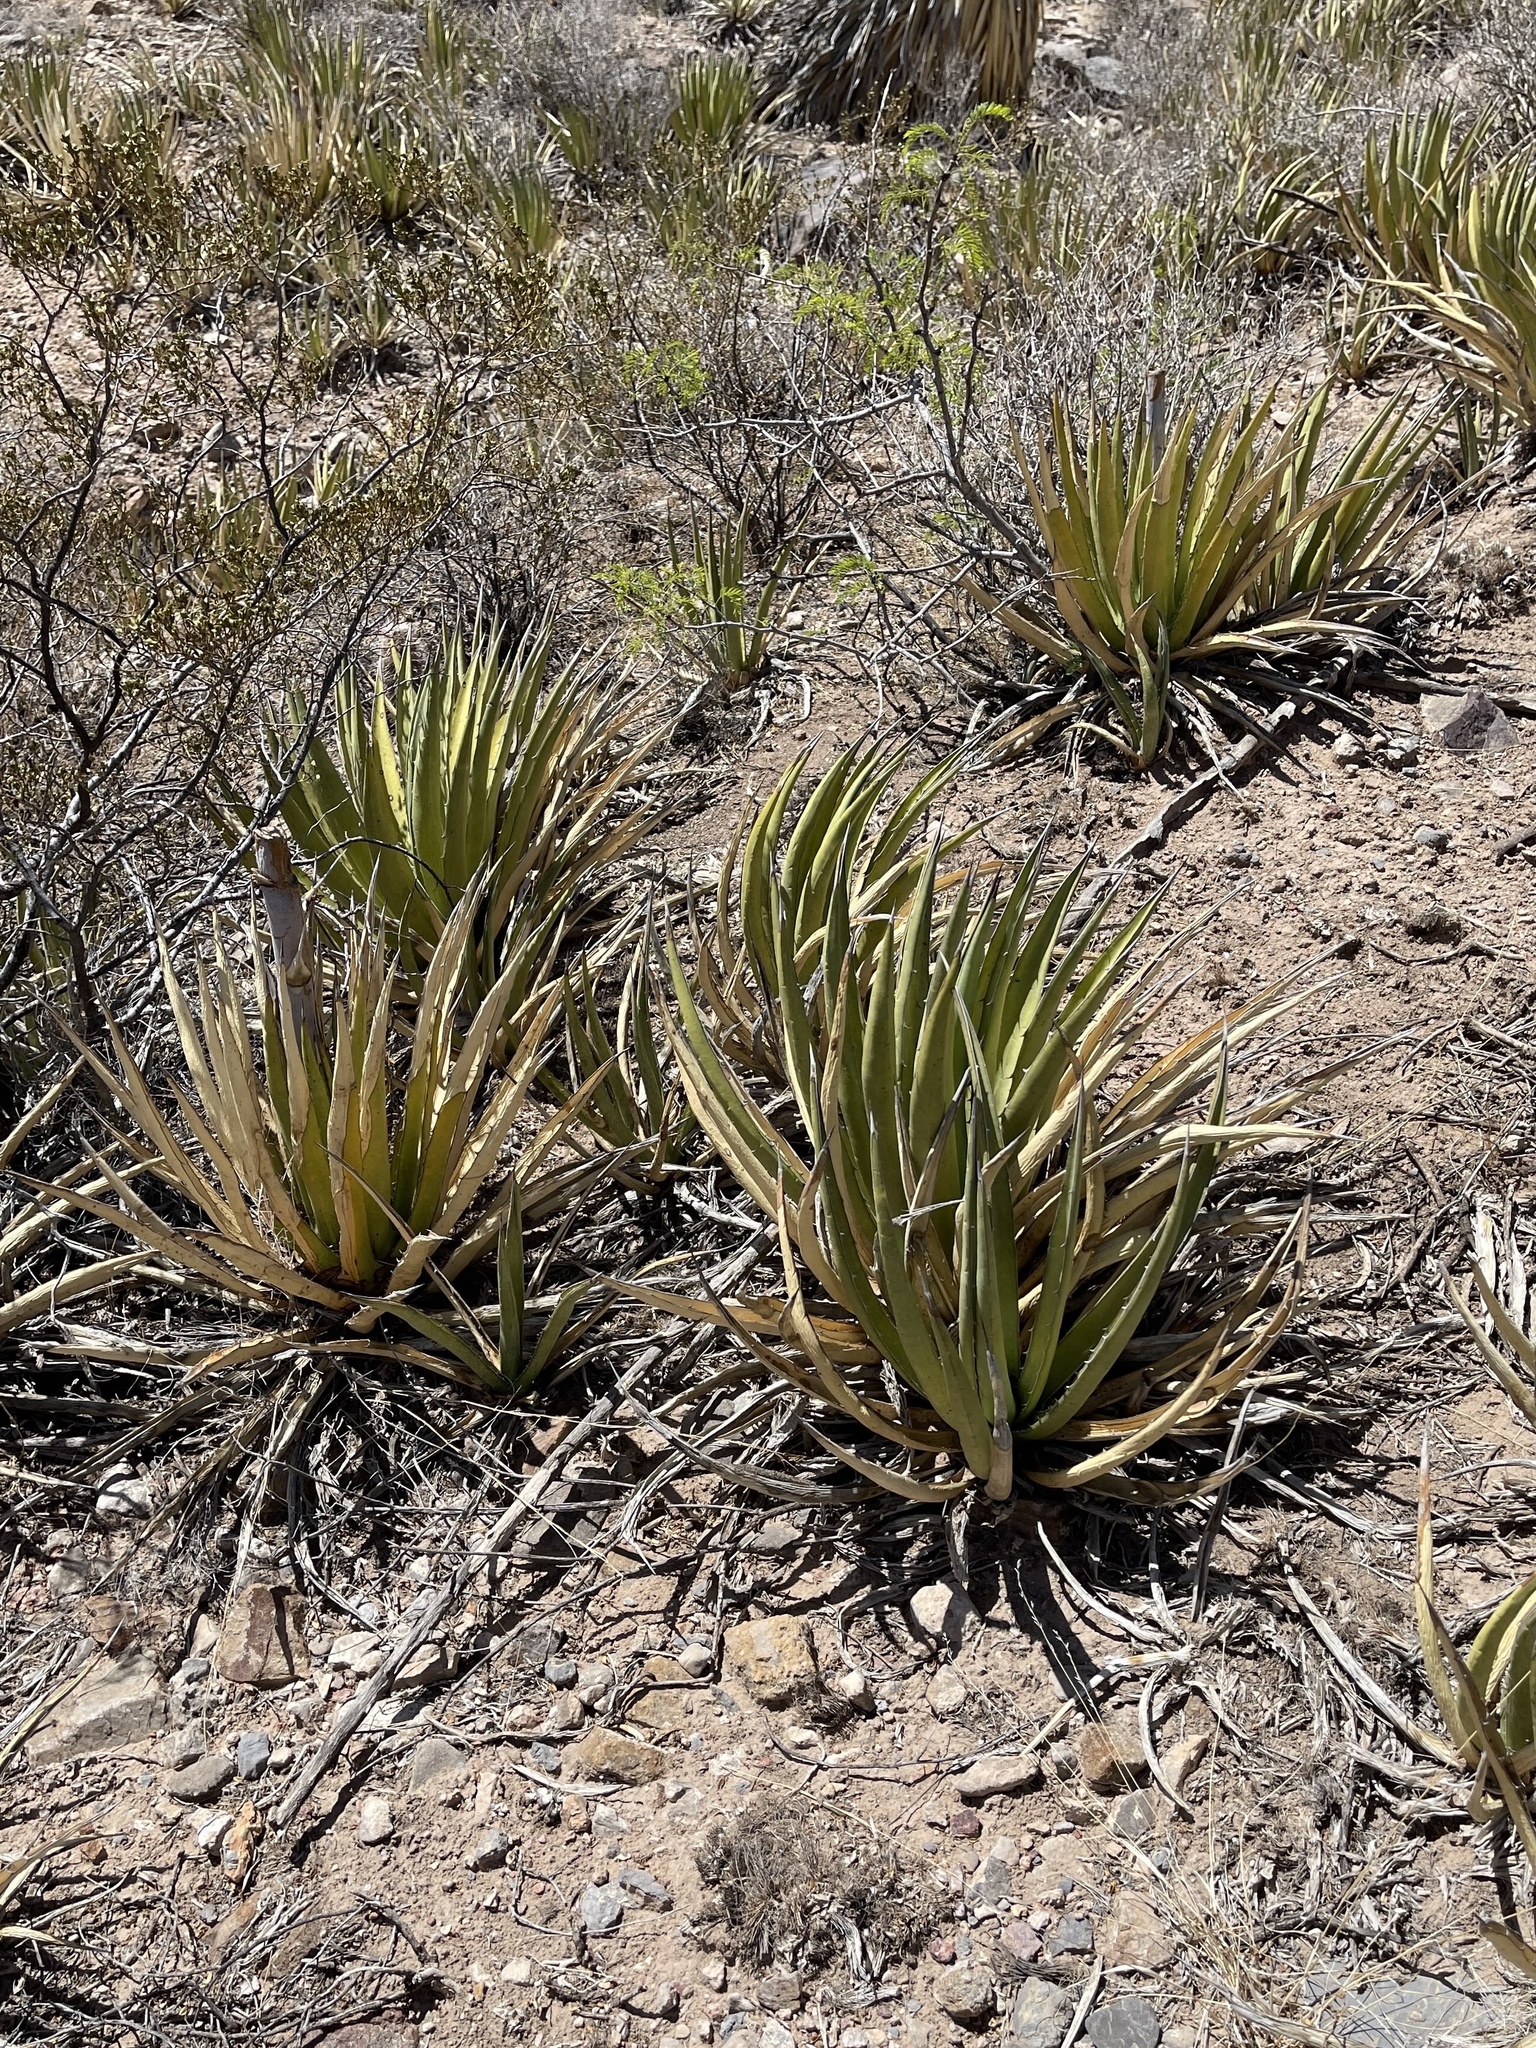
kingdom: Plantae
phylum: Tracheophyta
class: Liliopsida
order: Asparagales
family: Asparagaceae
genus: Agave
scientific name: Agave lechuguilla
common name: Lecheguilla agave
